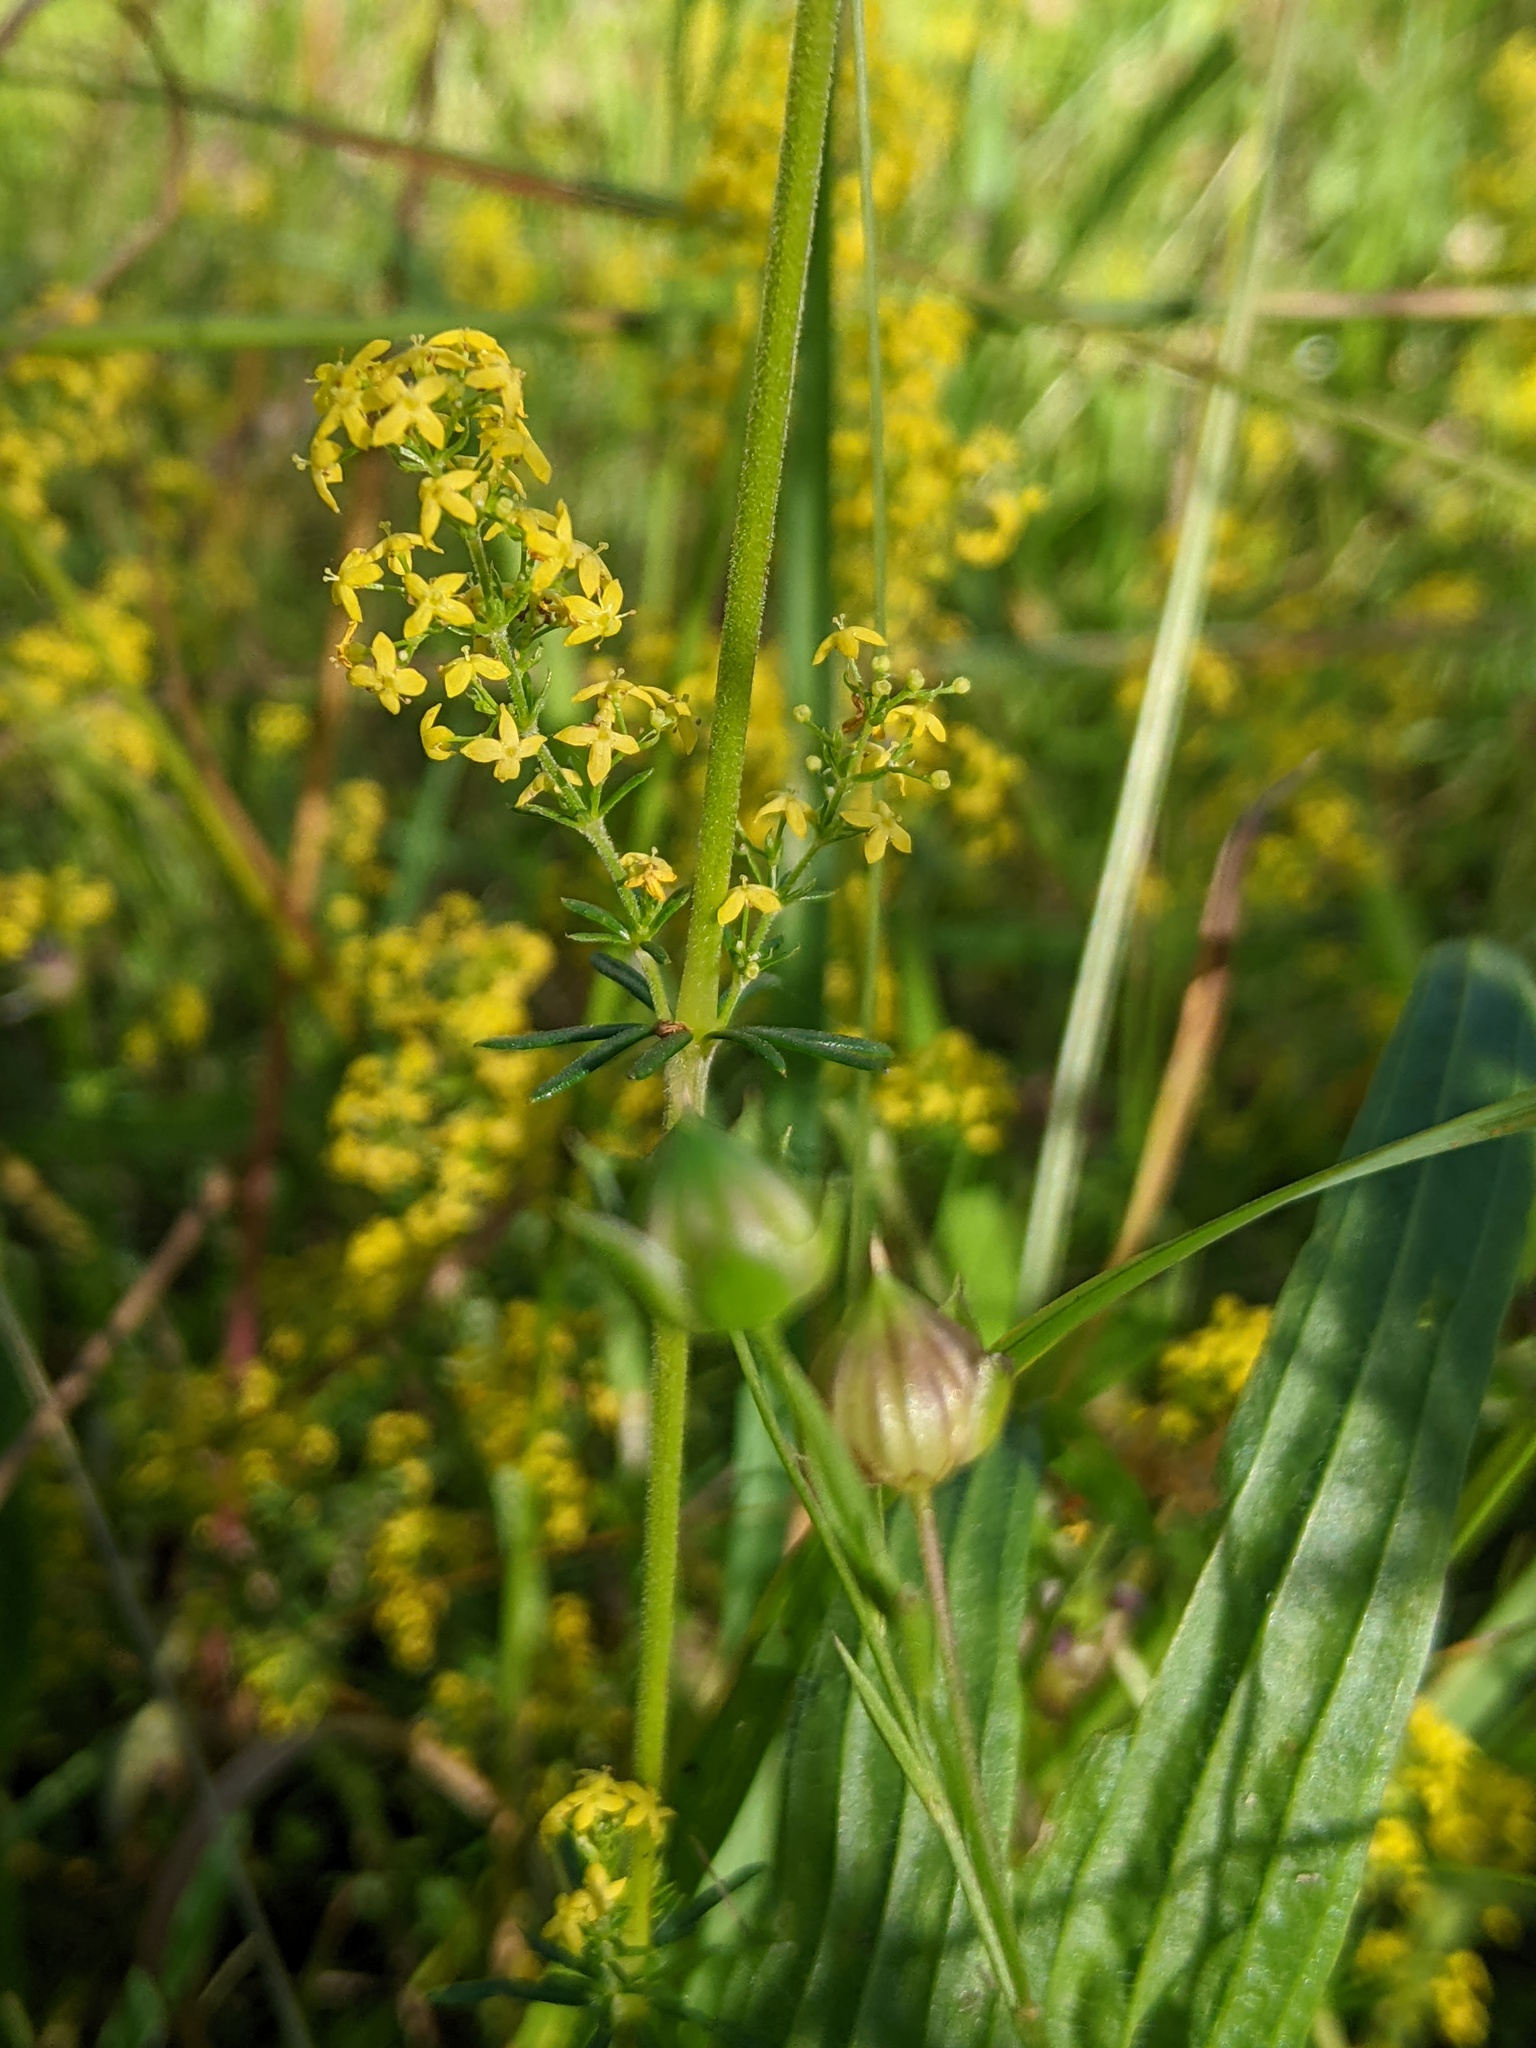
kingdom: Plantae
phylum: Tracheophyta
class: Magnoliopsida
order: Gentianales
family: Rubiaceae
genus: Galium
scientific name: Galium verum
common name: Lady's bedstraw
